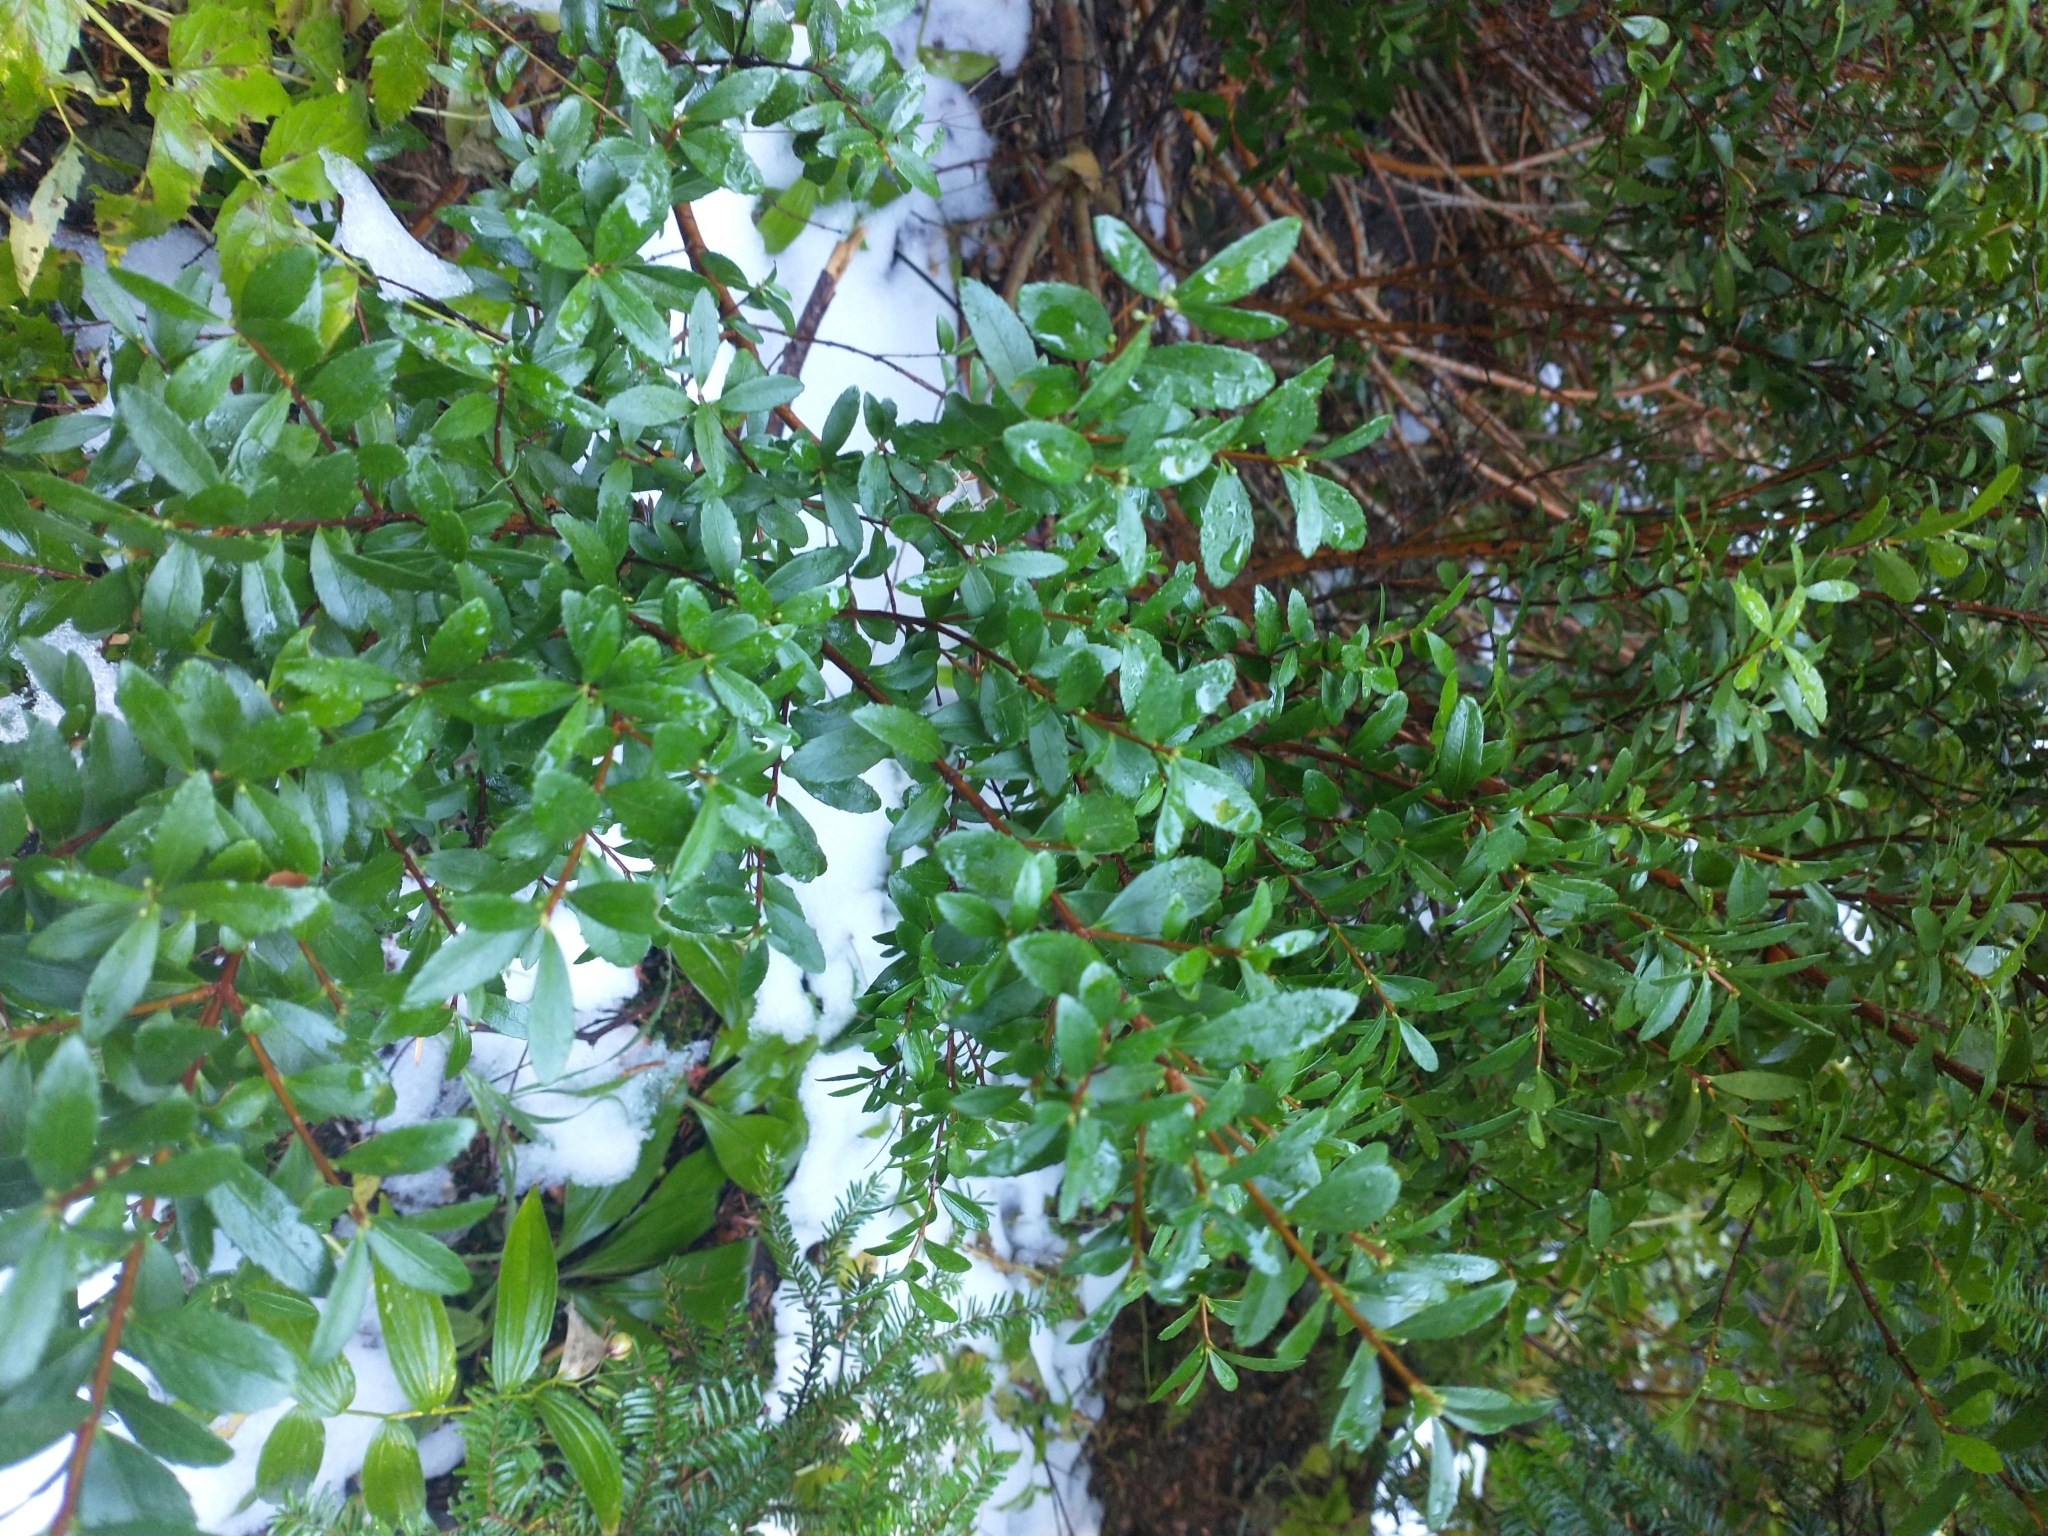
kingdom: Plantae
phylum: Tracheophyta
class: Magnoliopsida
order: Celastrales
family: Celastraceae
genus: Paxistima
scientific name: Paxistima myrsinites
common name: Mountain-lover
